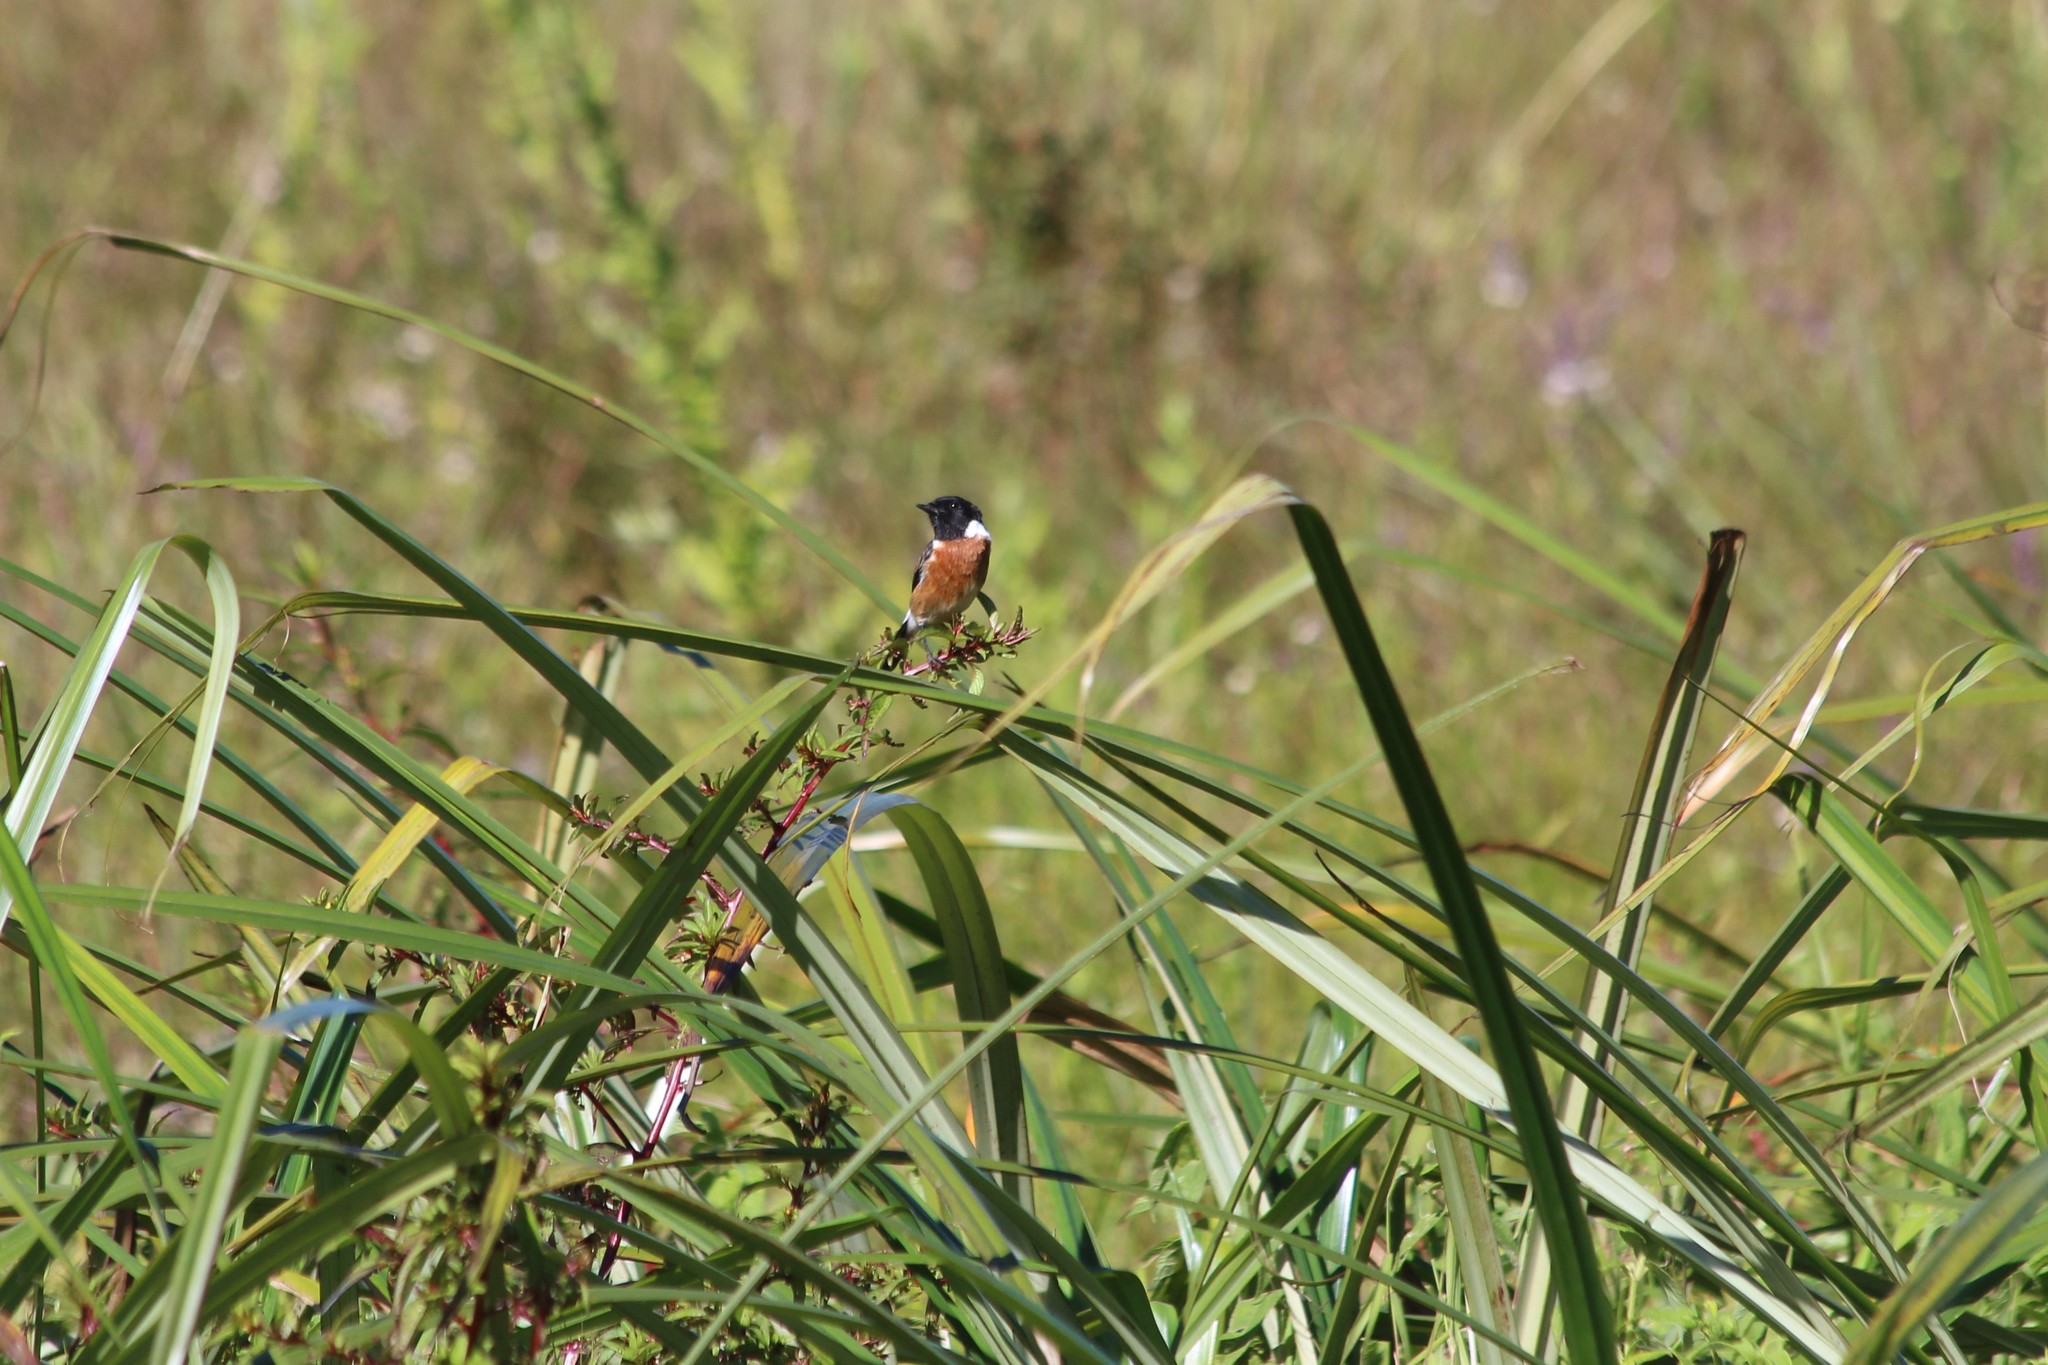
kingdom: Animalia
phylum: Chordata
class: Aves
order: Passeriformes
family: Muscicapidae
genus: Saxicola
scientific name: Saxicola torquatus
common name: African stonechat
